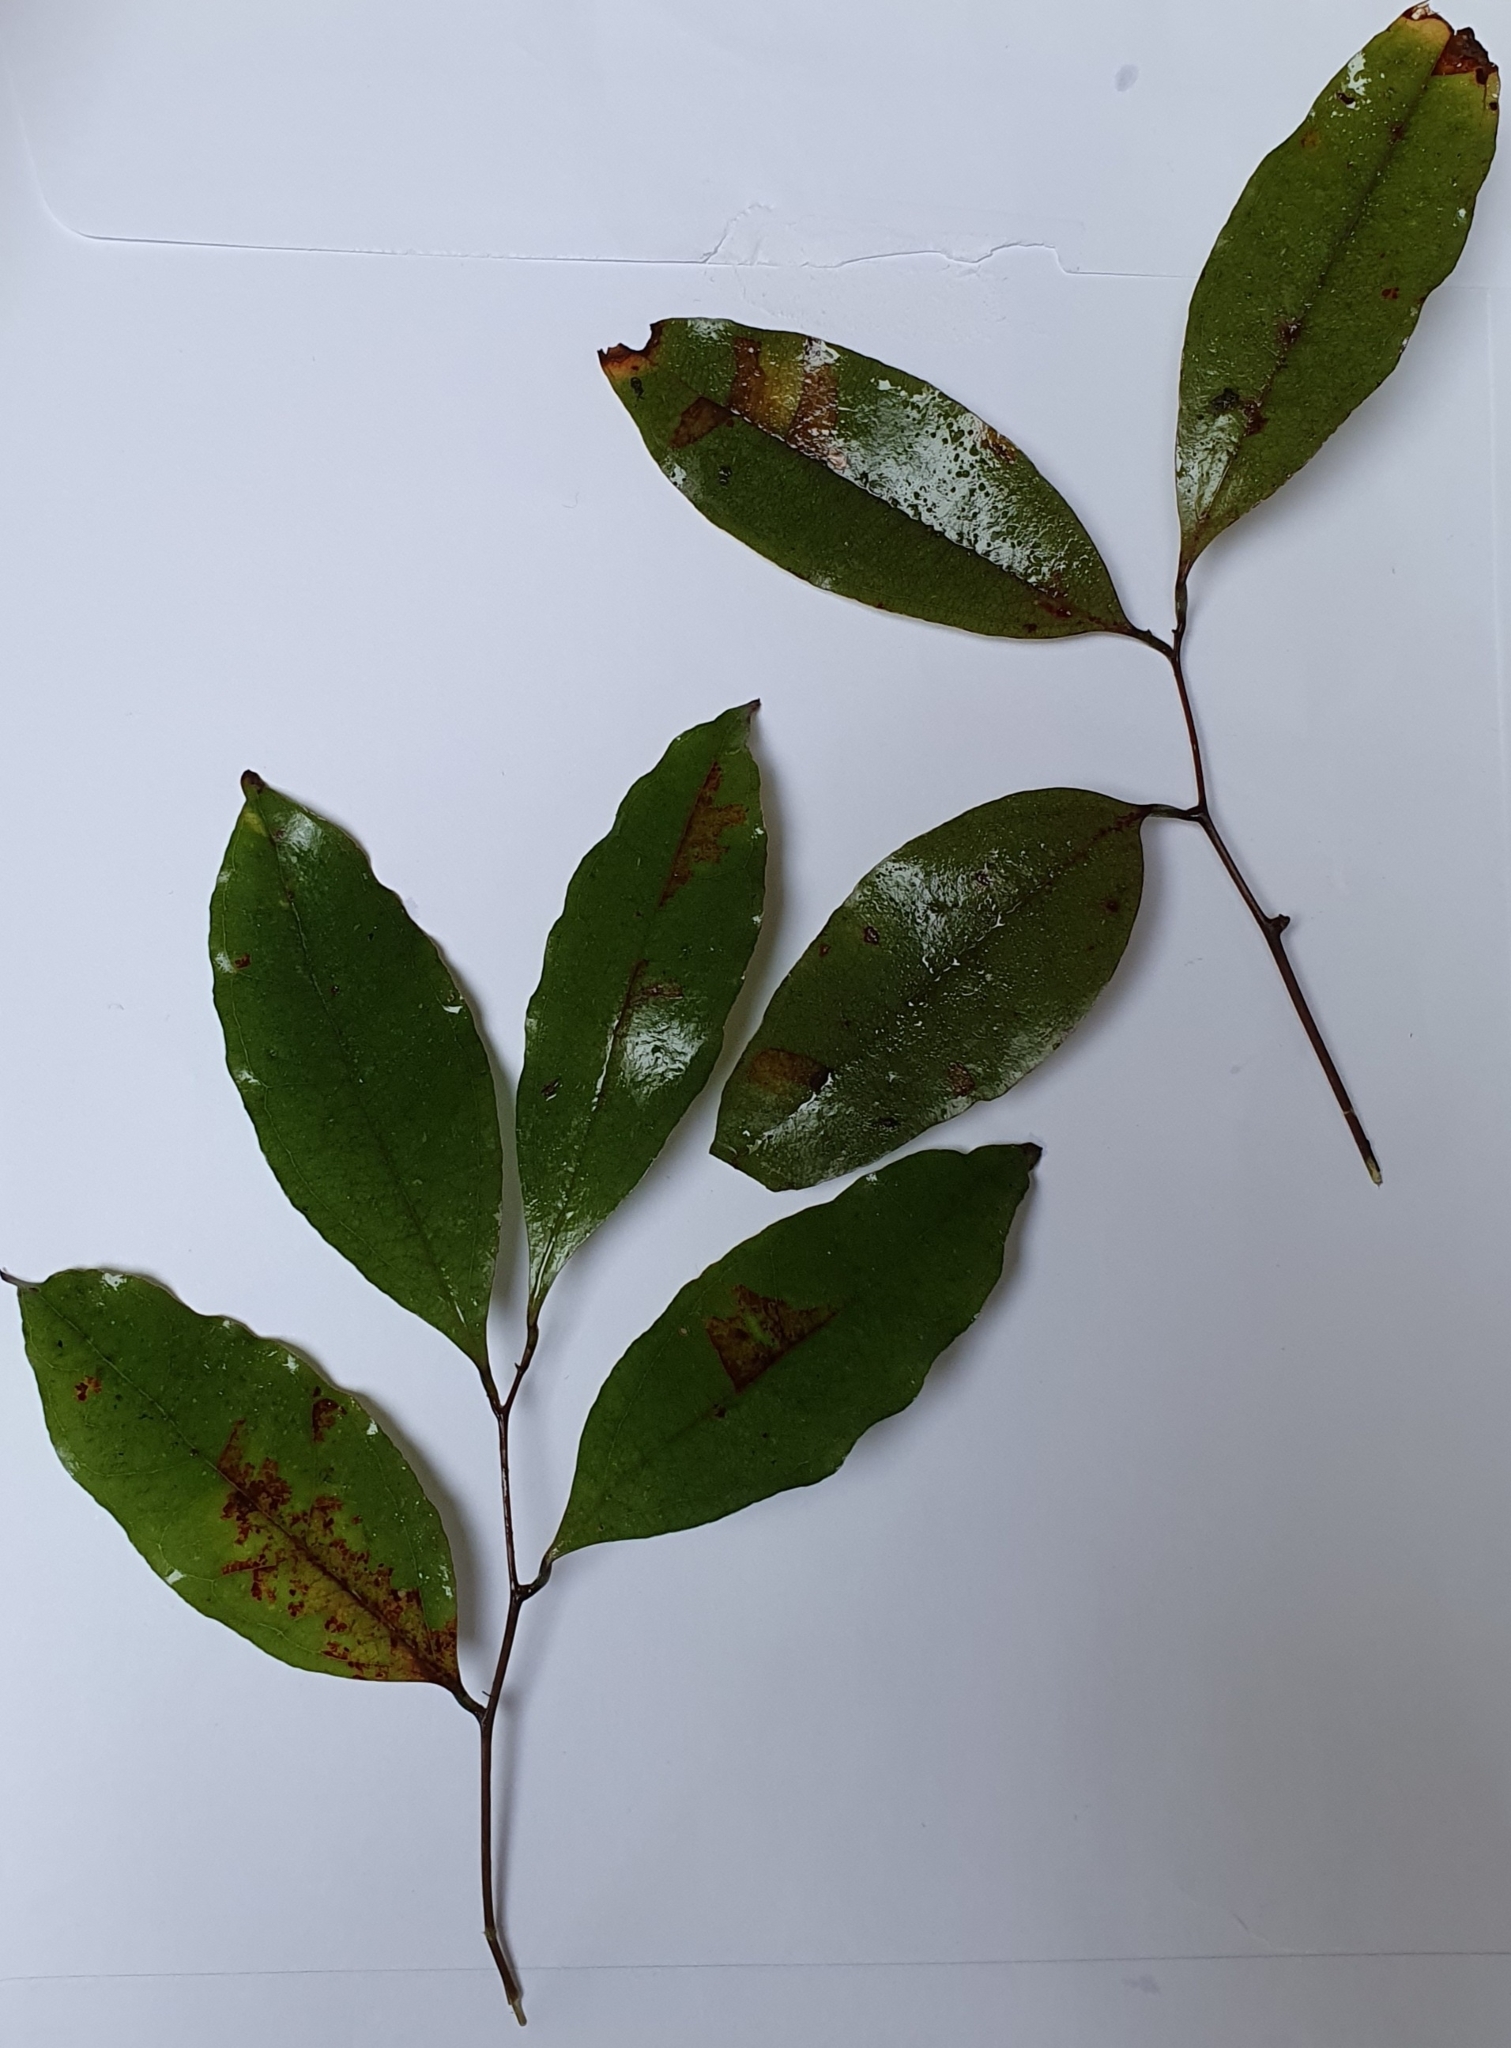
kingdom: Plantae
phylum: Tracheophyta
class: Magnoliopsida
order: Malpighiales
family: Passifloraceae
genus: Passiflora
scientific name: Passiflora tetrandra
